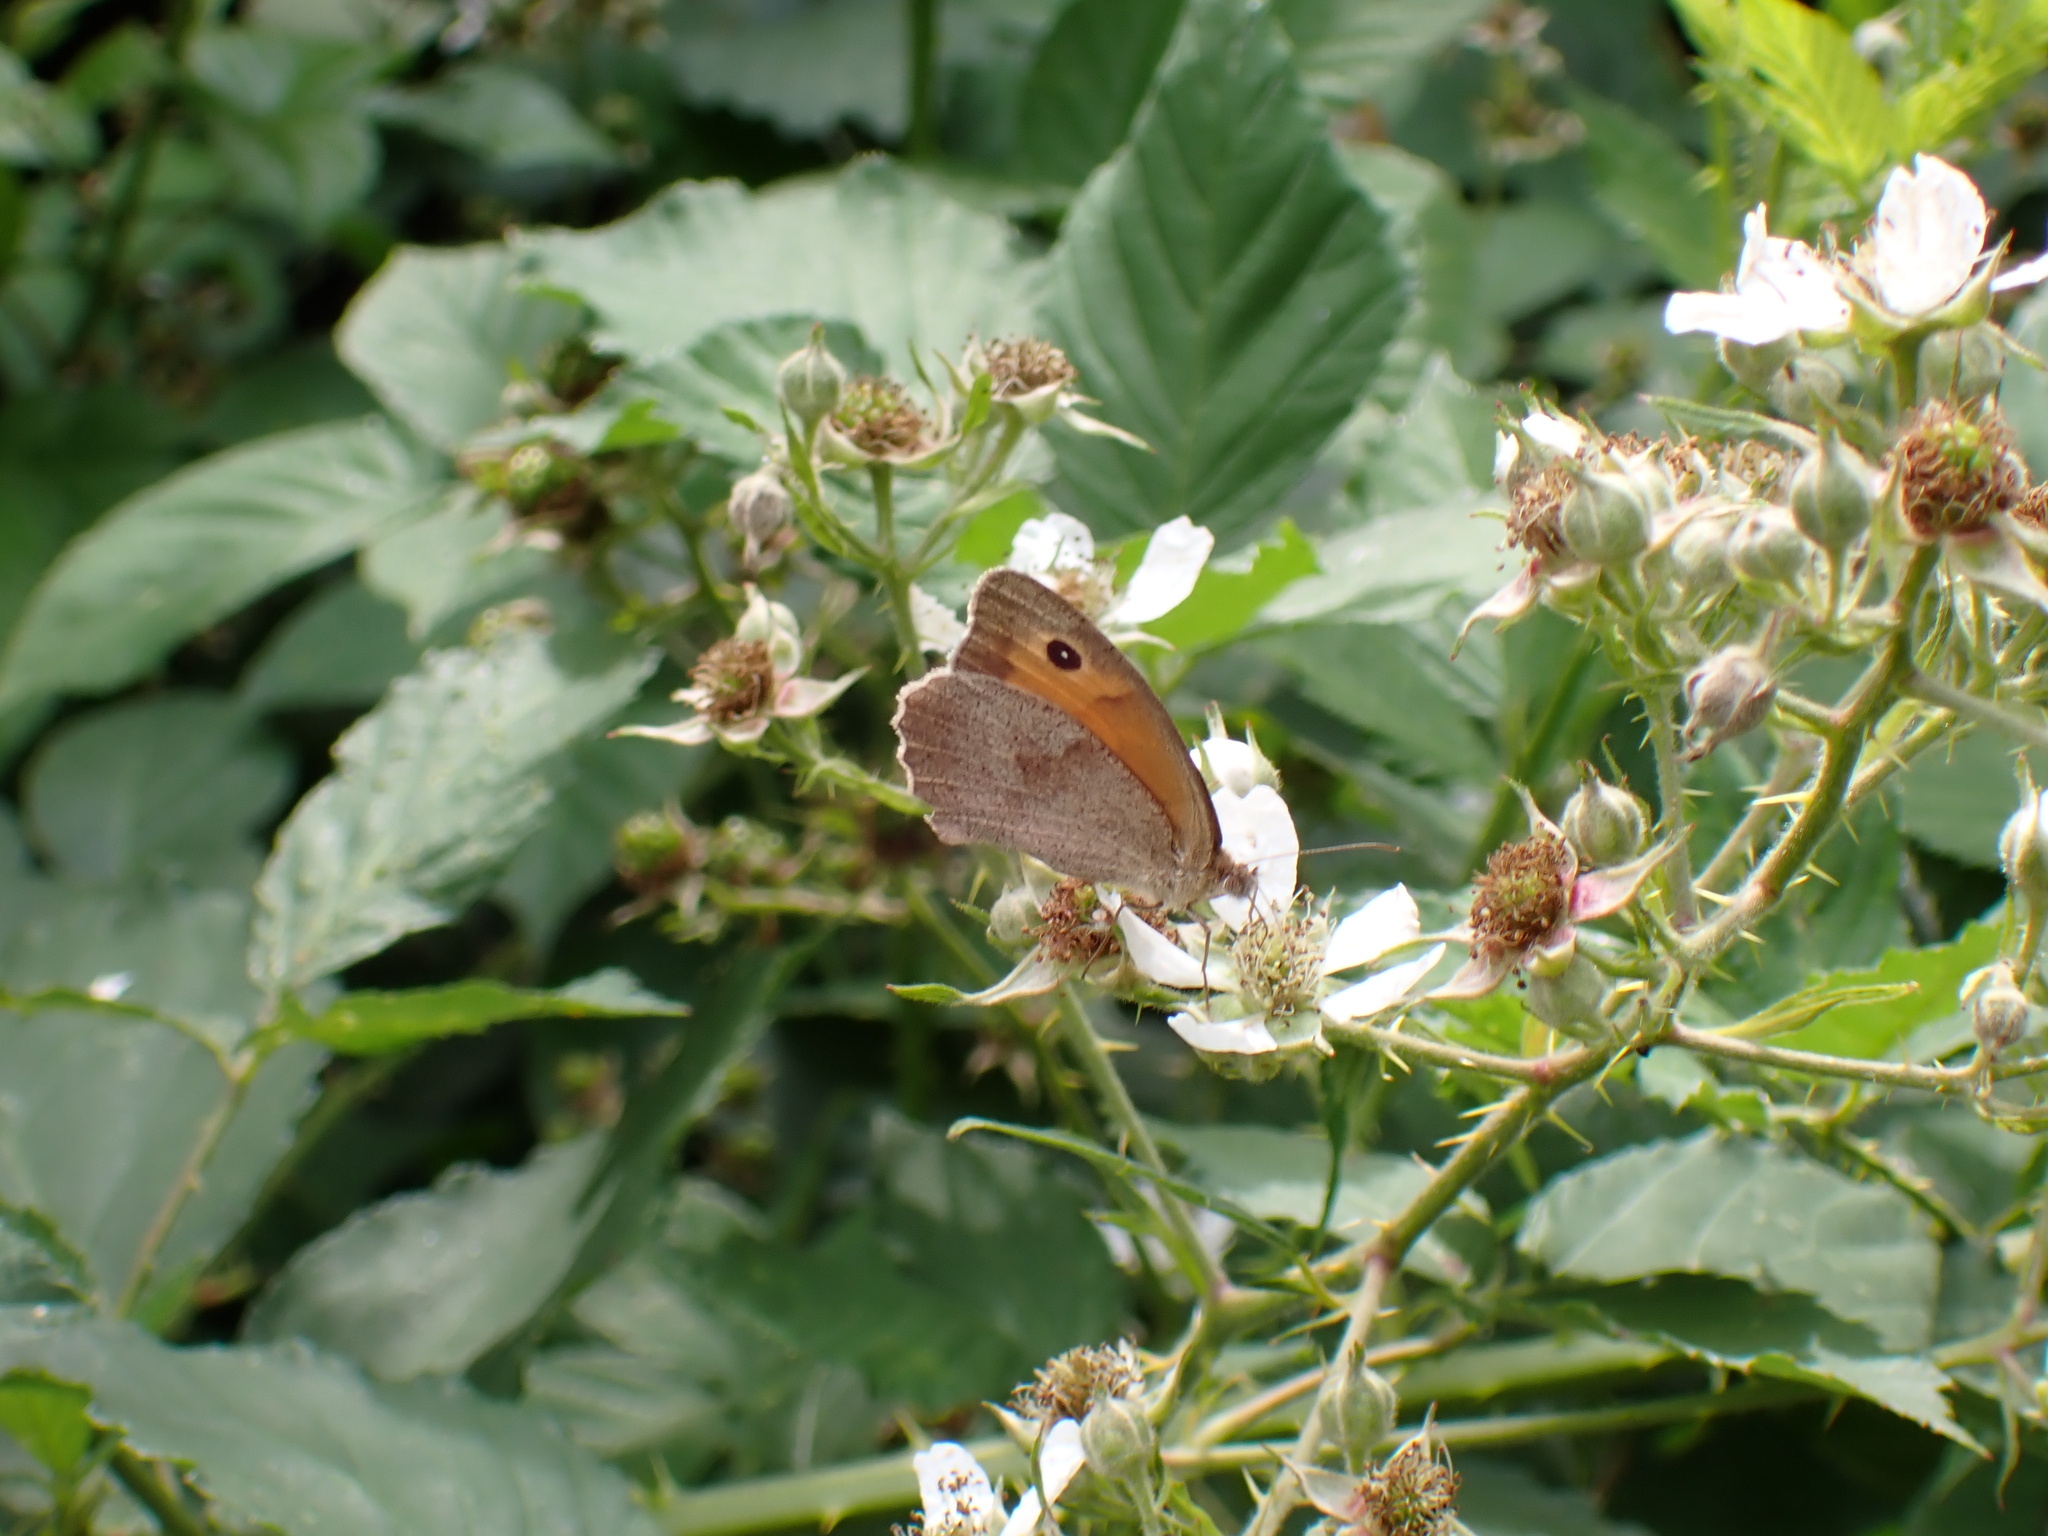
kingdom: Animalia
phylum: Arthropoda
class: Insecta
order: Lepidoptera
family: Nymphalidae
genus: Maniola
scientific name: Maniola jurtina
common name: Meadow brown
